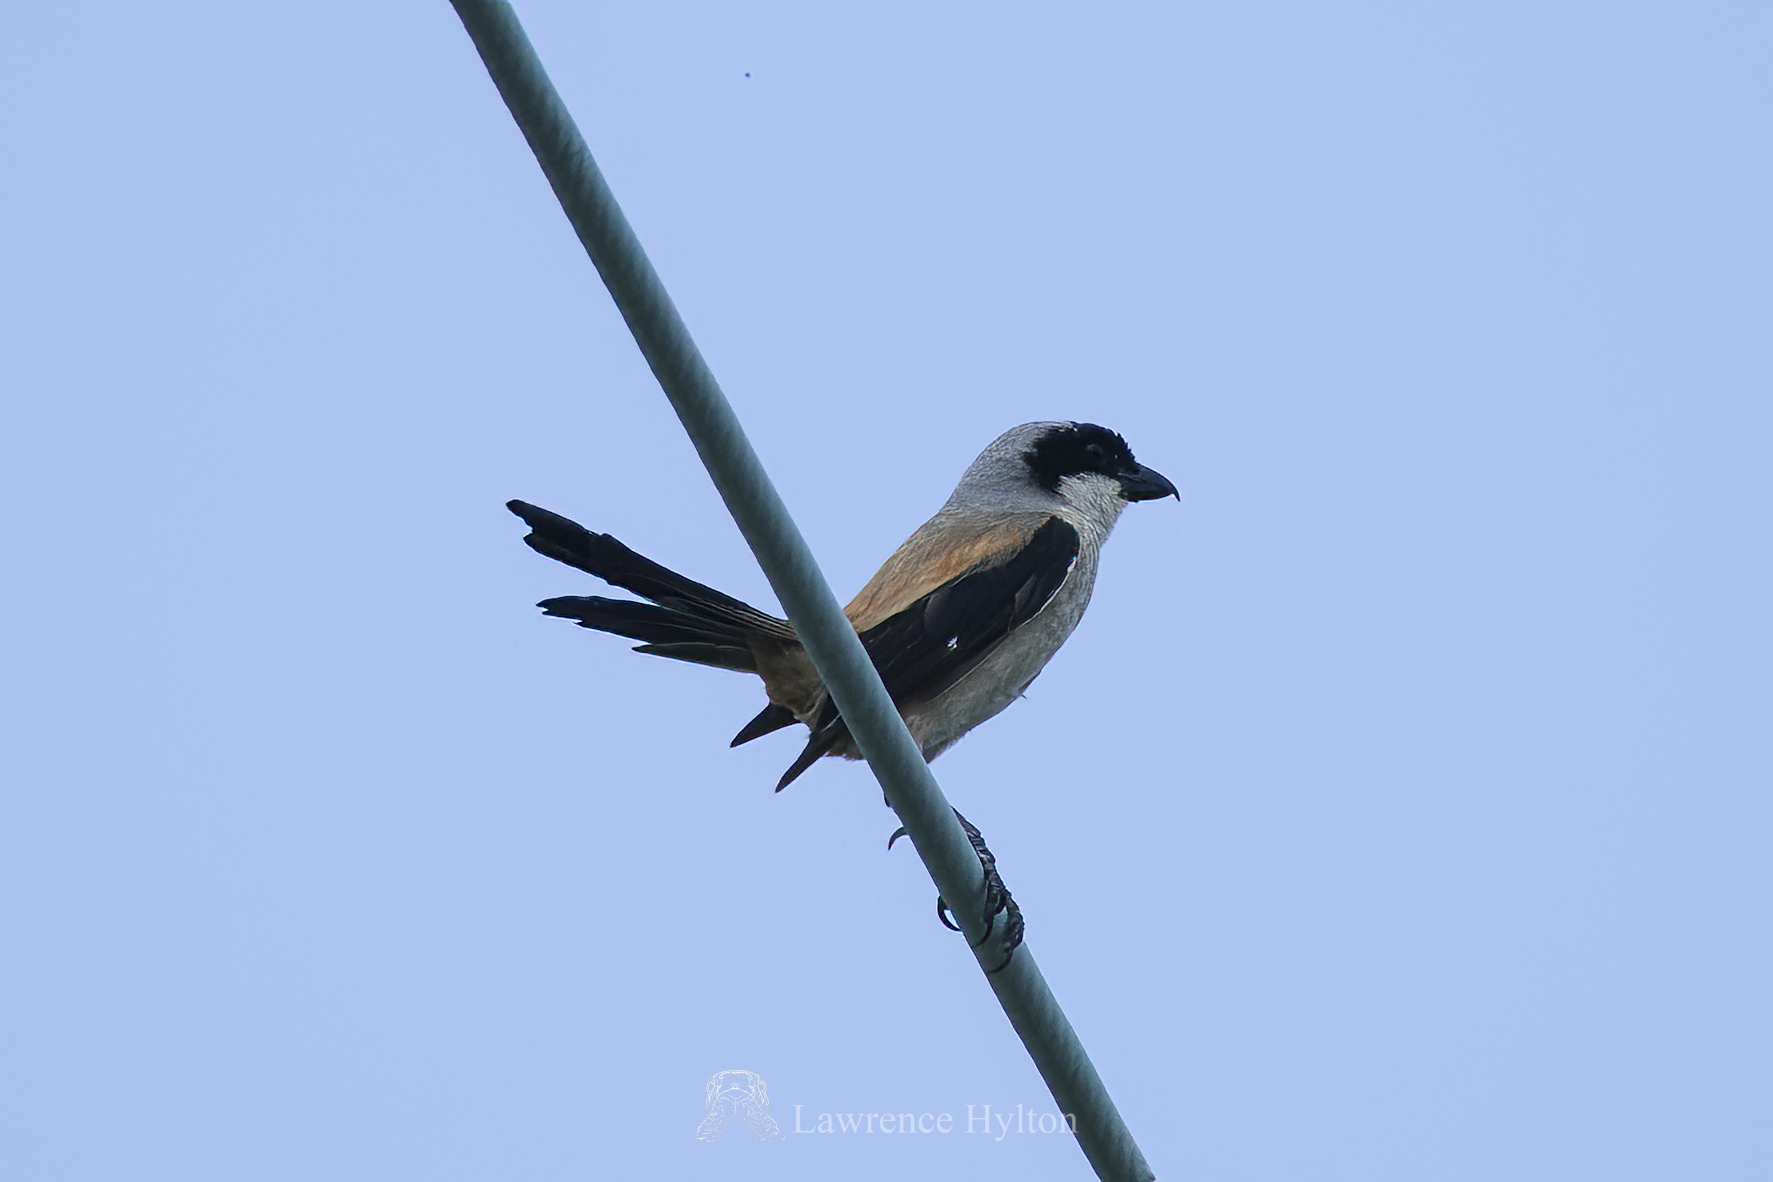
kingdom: Animalia
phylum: Chordata
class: Aves
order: Passeriformes
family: Laniidae
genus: Lanius
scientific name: Lanius schach
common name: Long-tailed shrike
